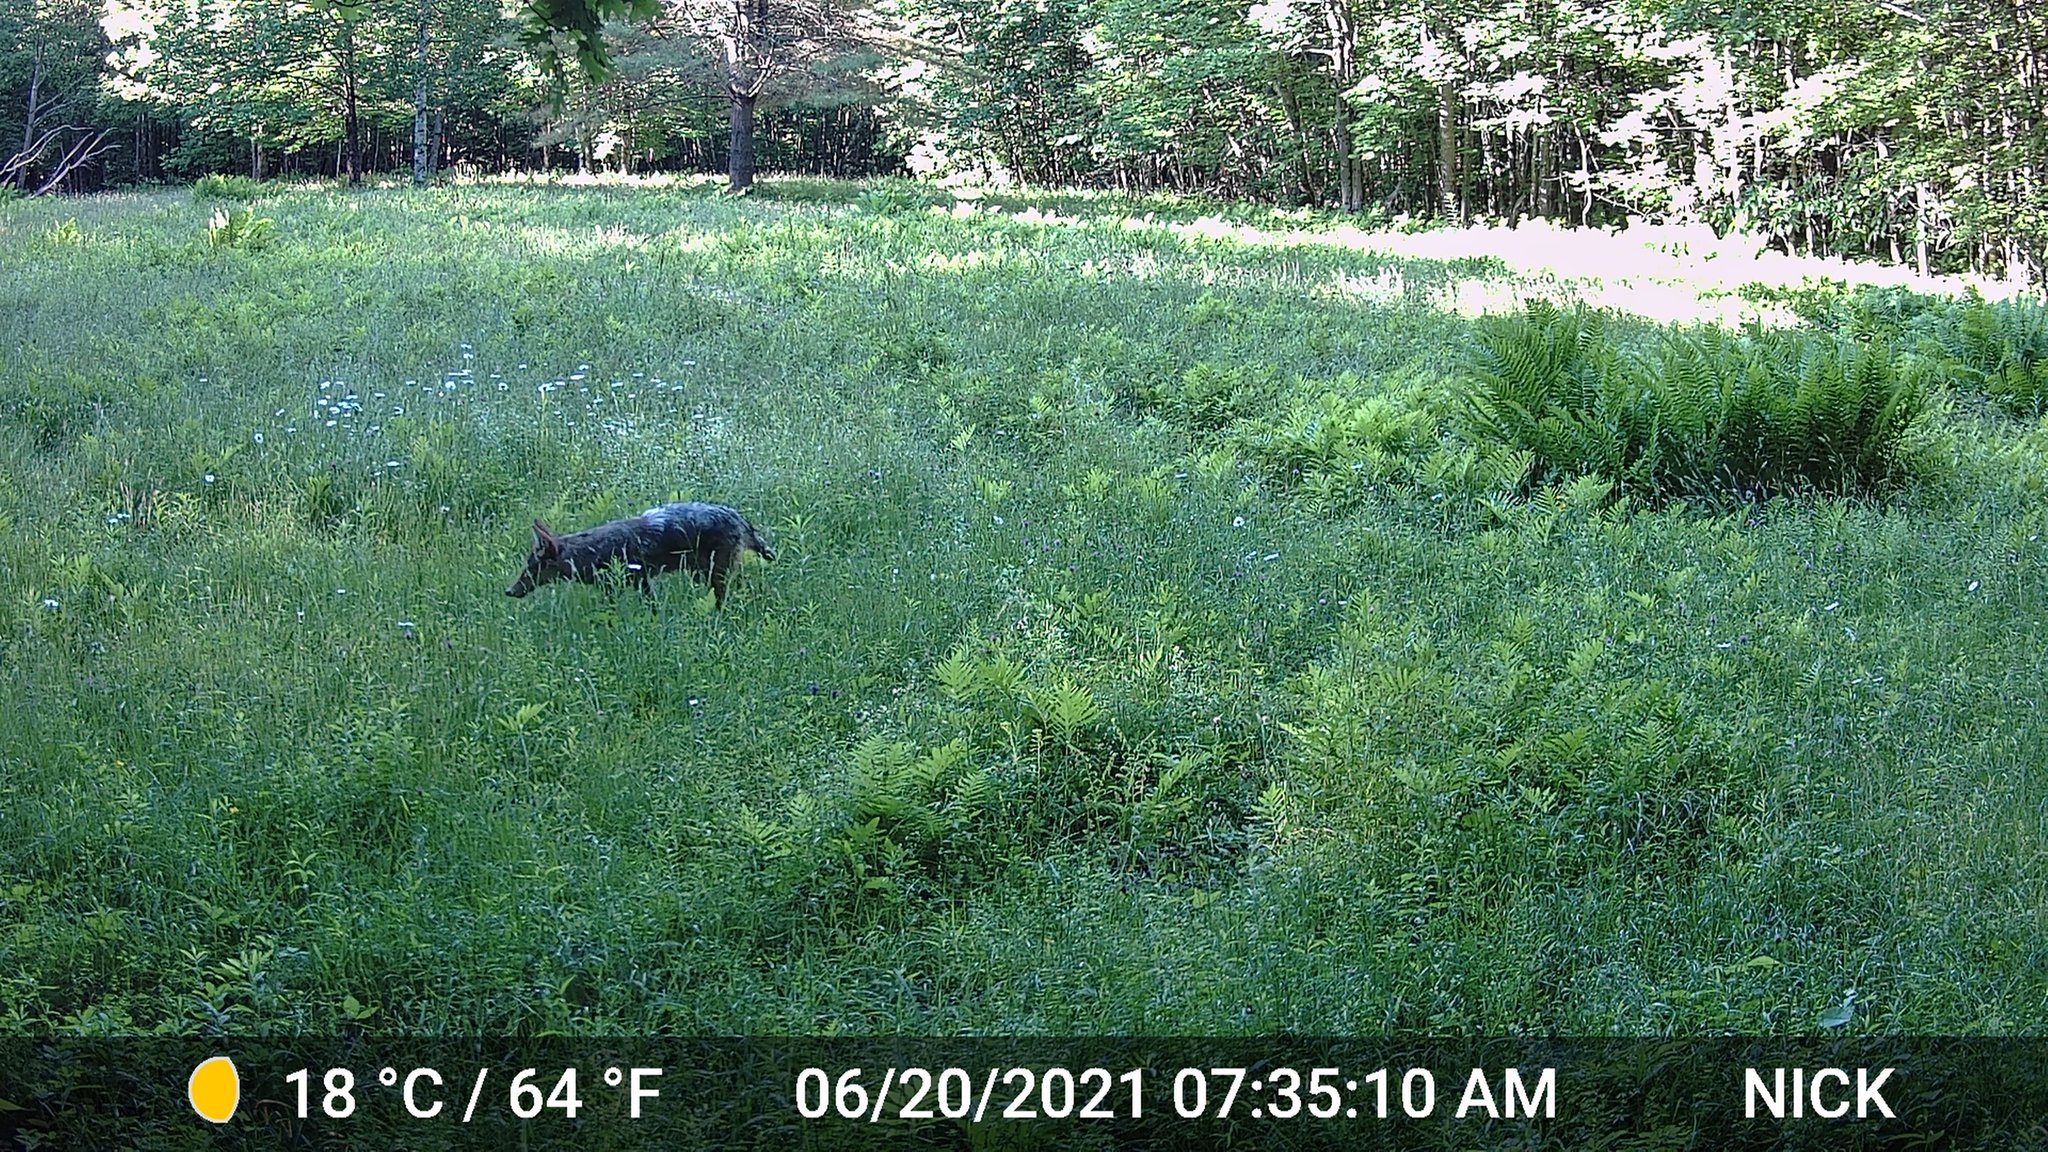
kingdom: Animalia
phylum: Chordata
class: Mammalia
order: Carnivora
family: Canidae
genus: Canis
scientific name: Canis latrans
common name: Coyote
